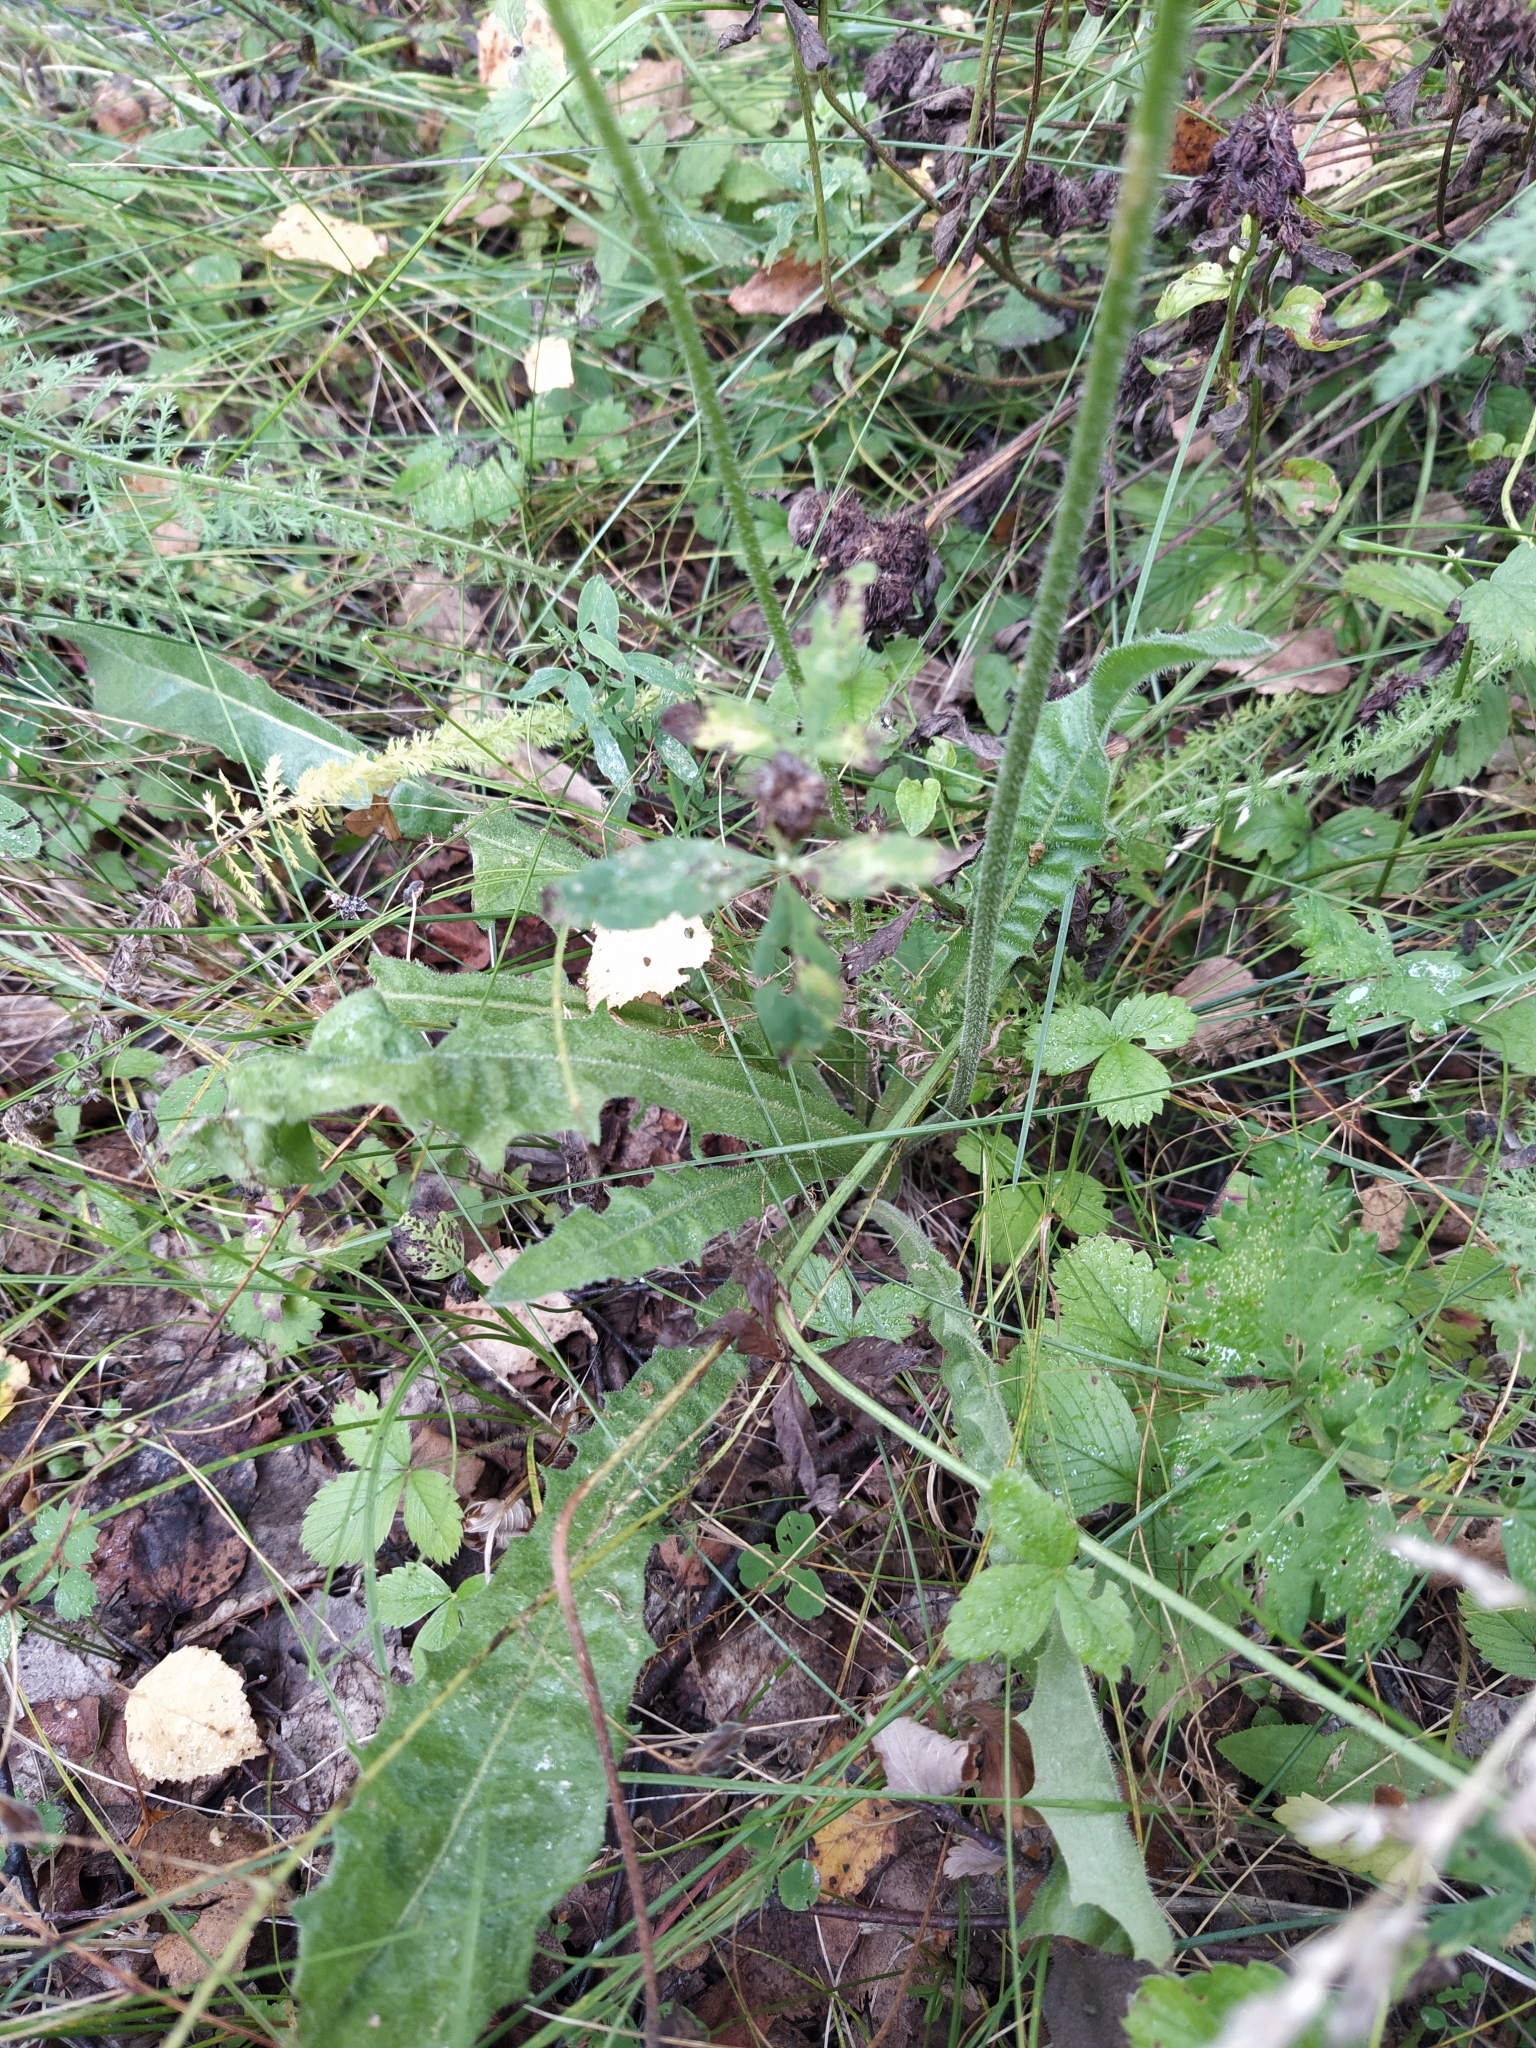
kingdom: Plantae
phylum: Tracheophyta
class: Magnoliopsida
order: Asterales
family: Asteraceae
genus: Leontodon
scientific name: Leontodon hispidus
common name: Rough hawkbit
